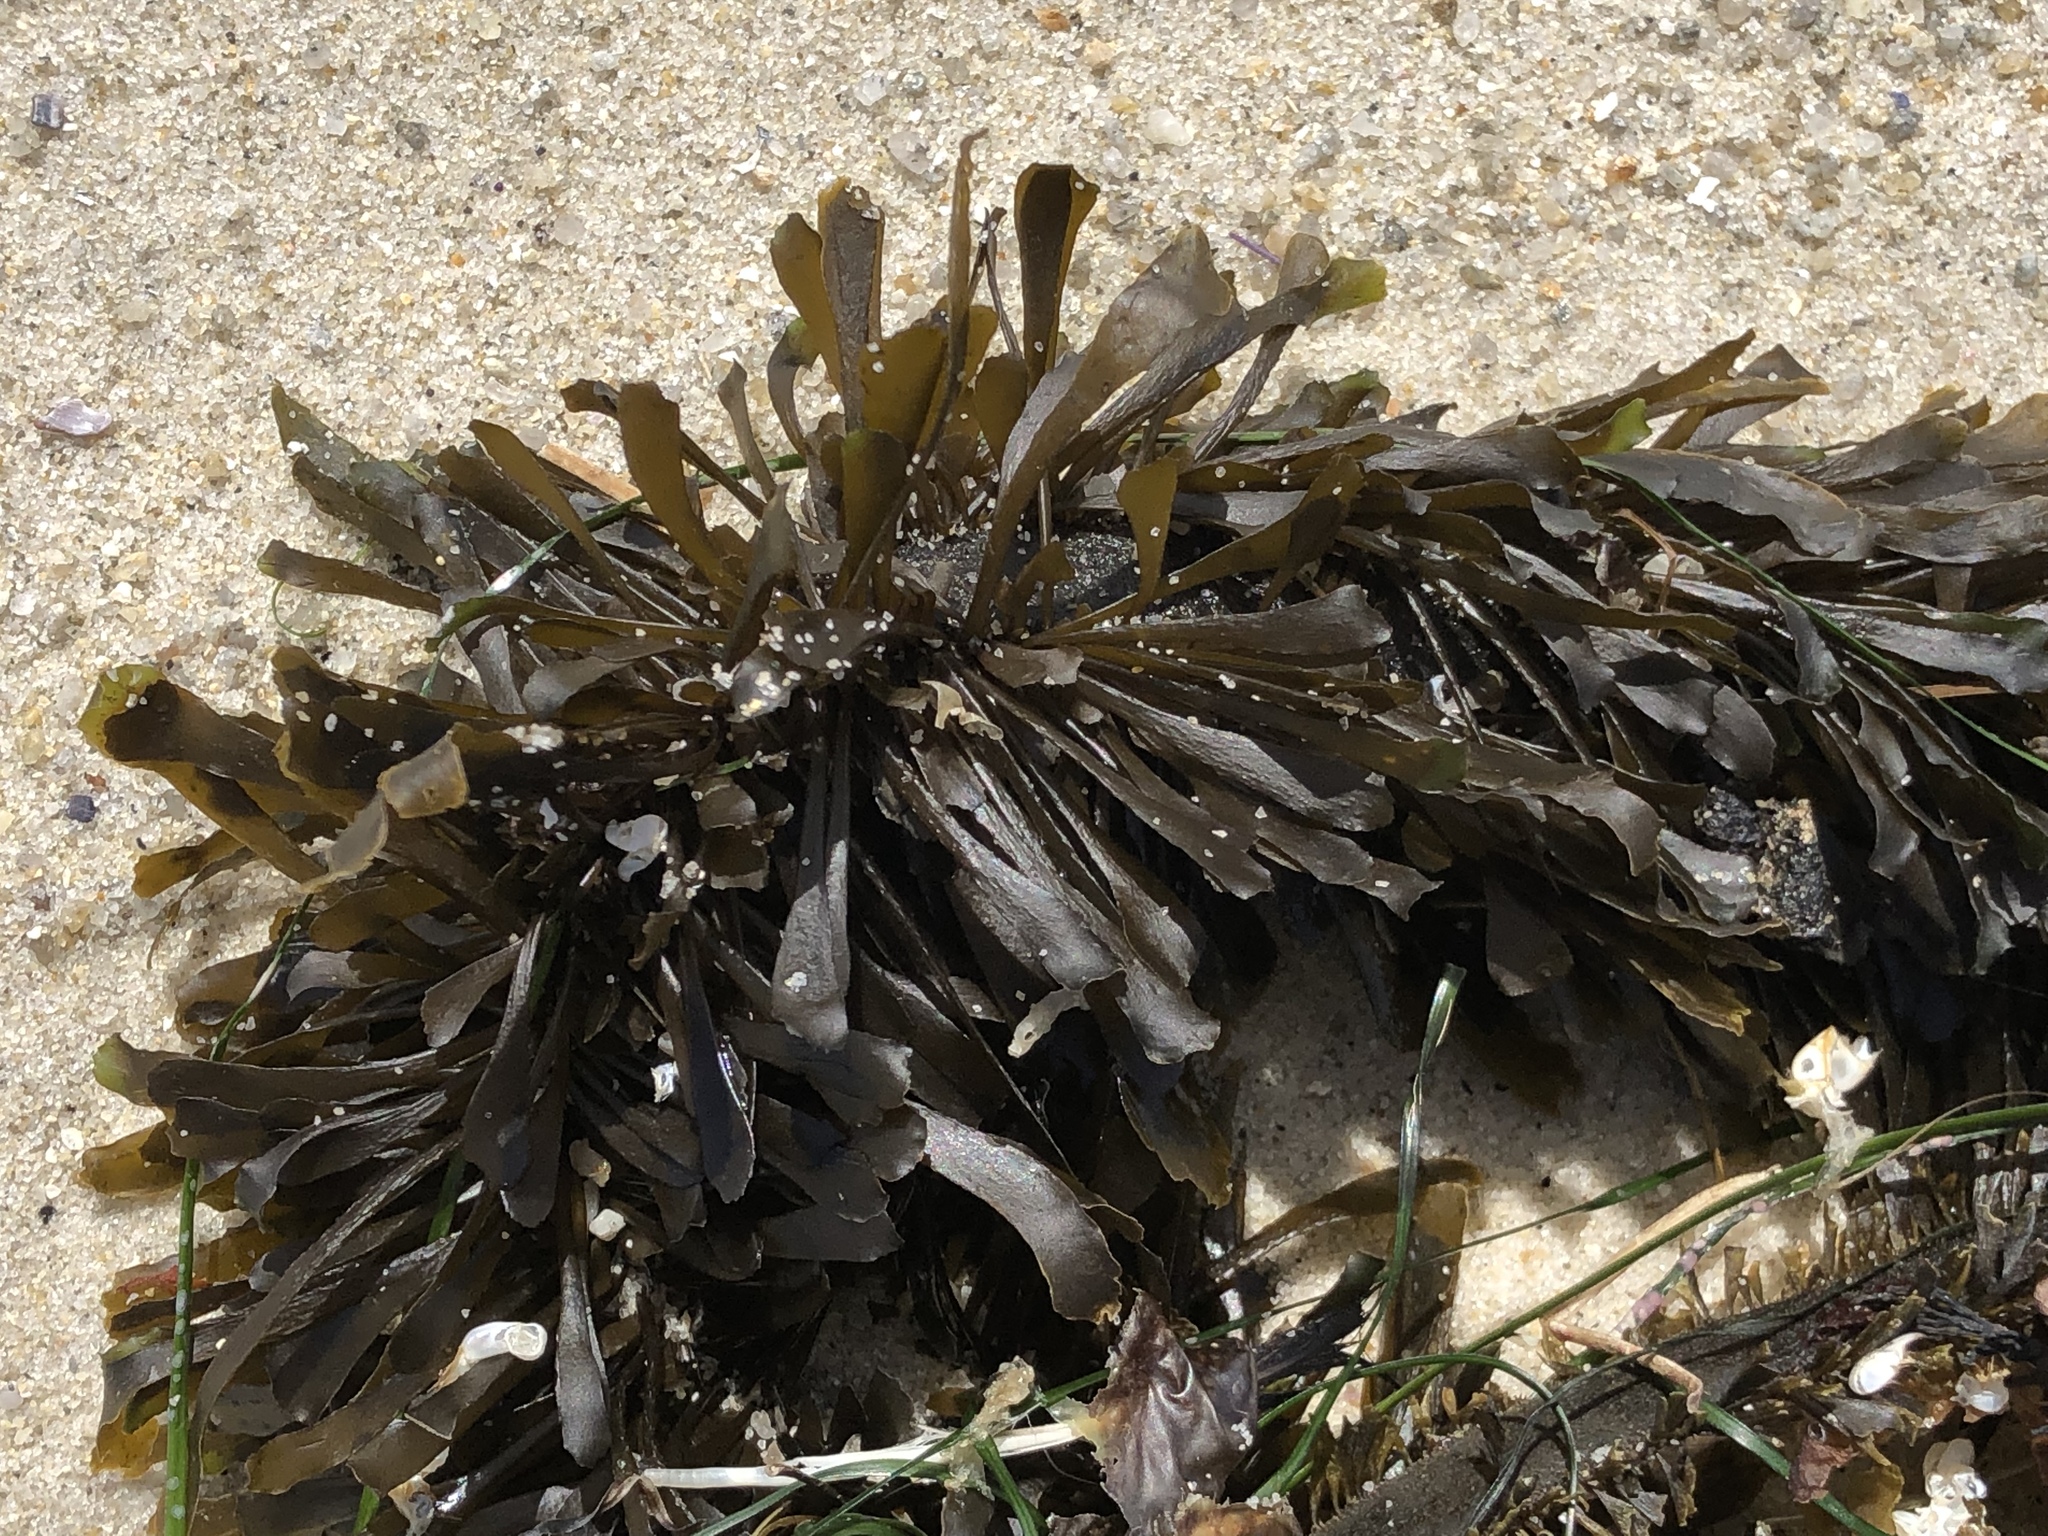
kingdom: Chromista
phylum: Ochrophyta
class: Phaeophyceae
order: Laminariales
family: Lessoniaceae
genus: Egregia
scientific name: Egregia menziesii
